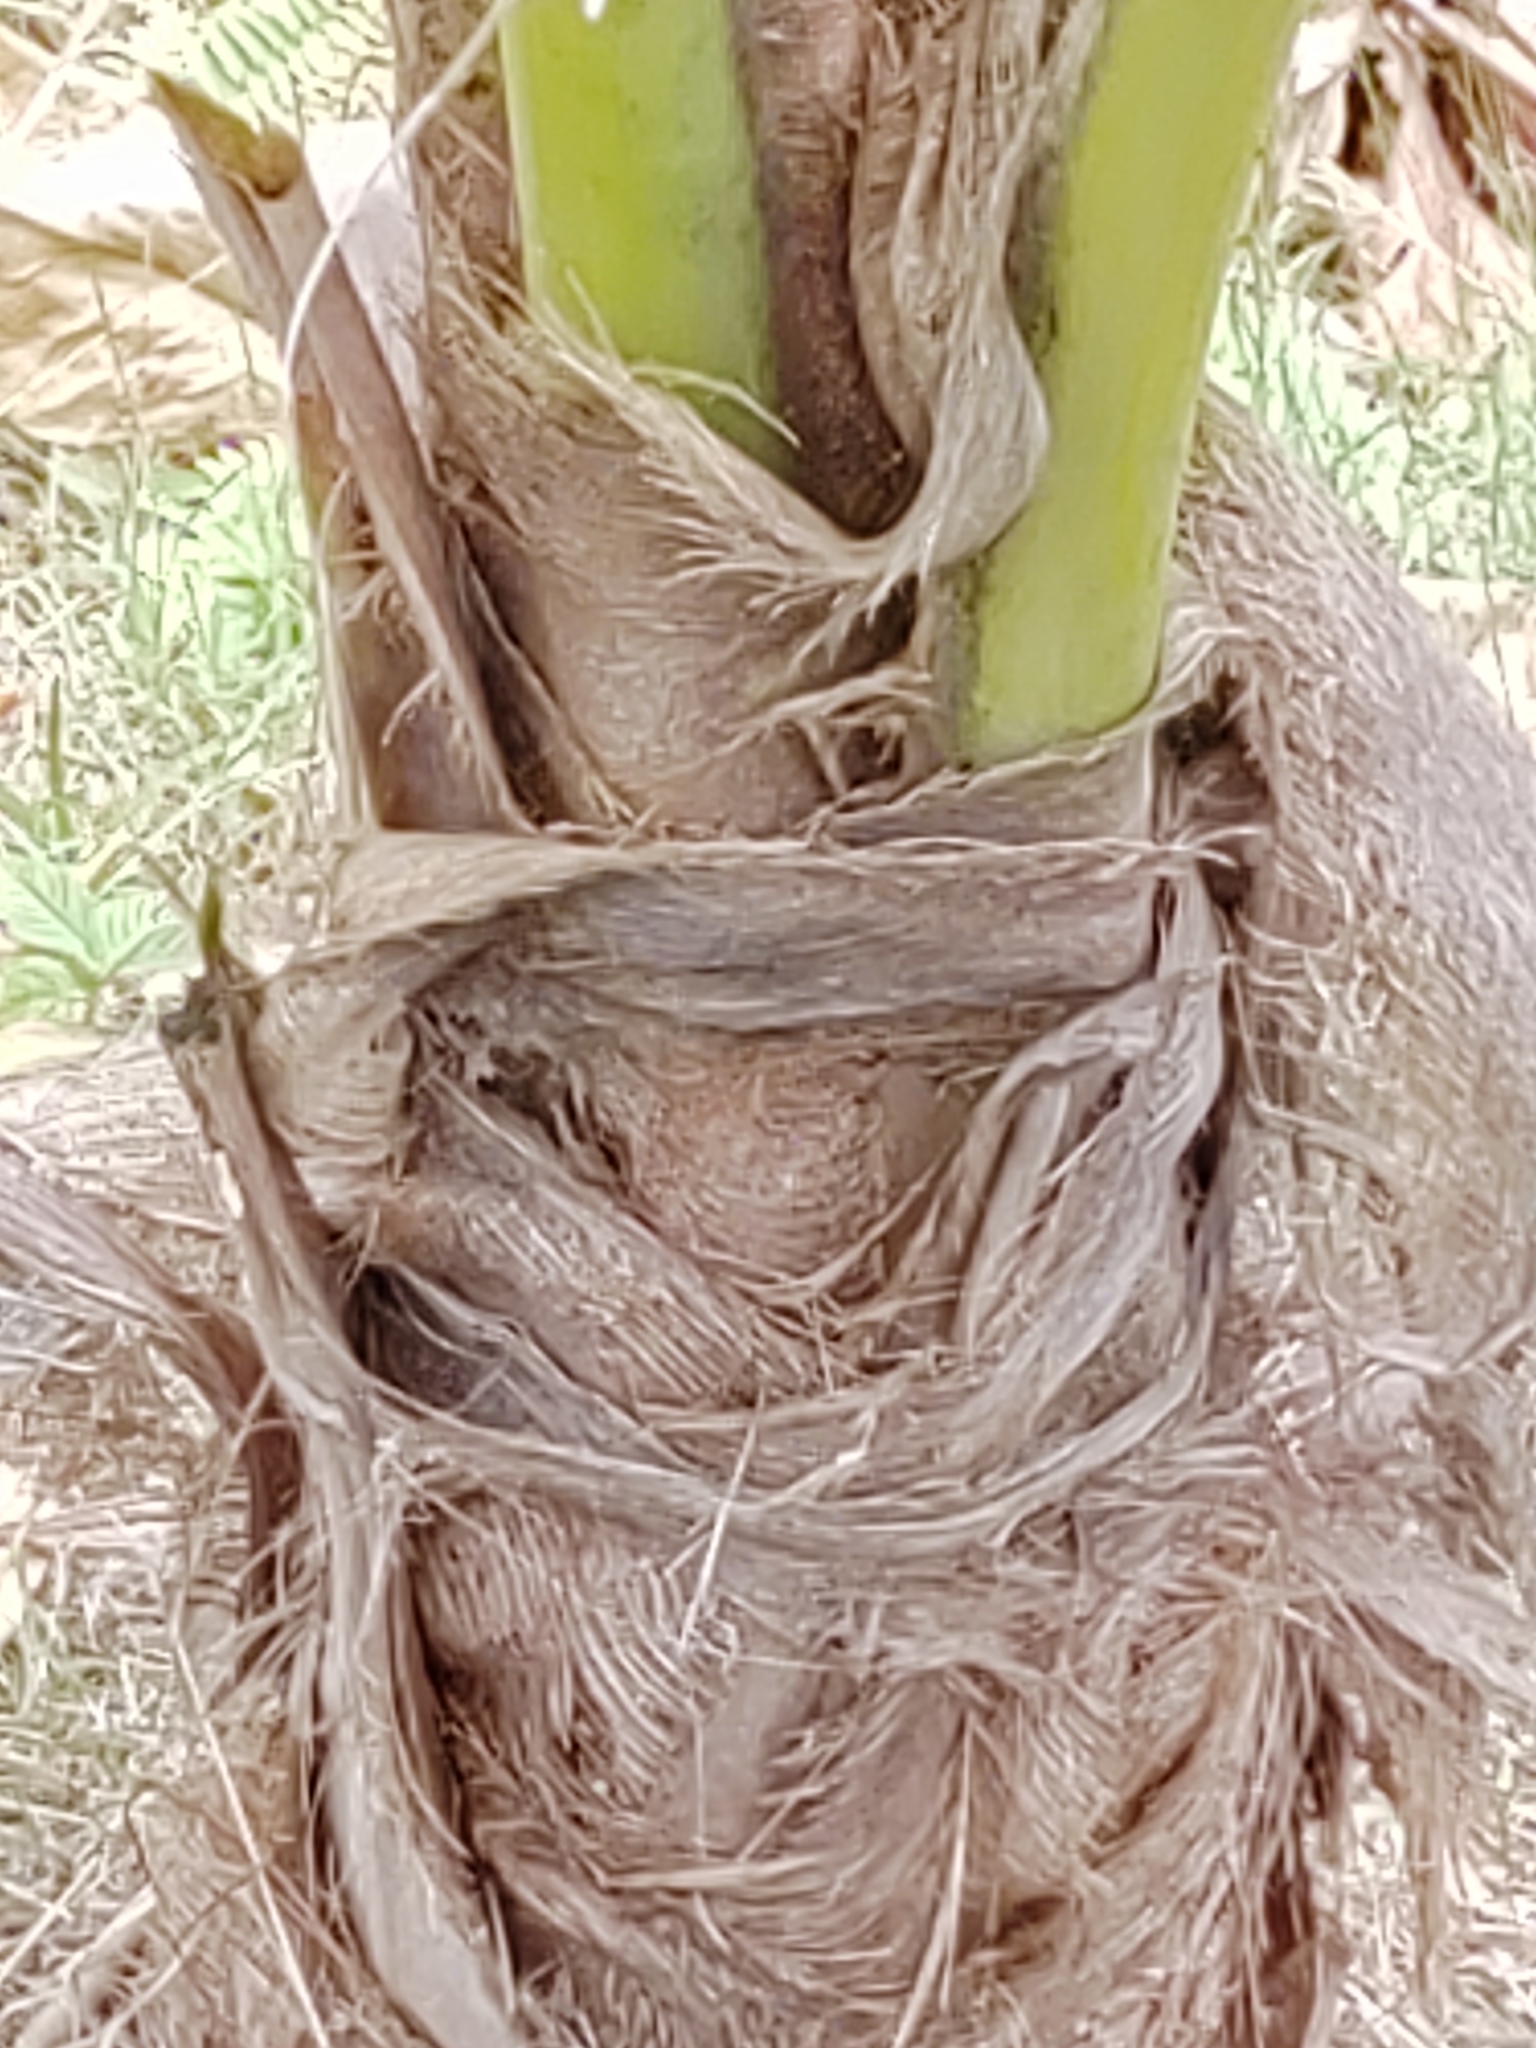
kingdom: Plantae
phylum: Tracheophyta
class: Liliopsida
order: Arecales
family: Arecaceae
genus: Cocos
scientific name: Cocos nucifera
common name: Coconut palm
